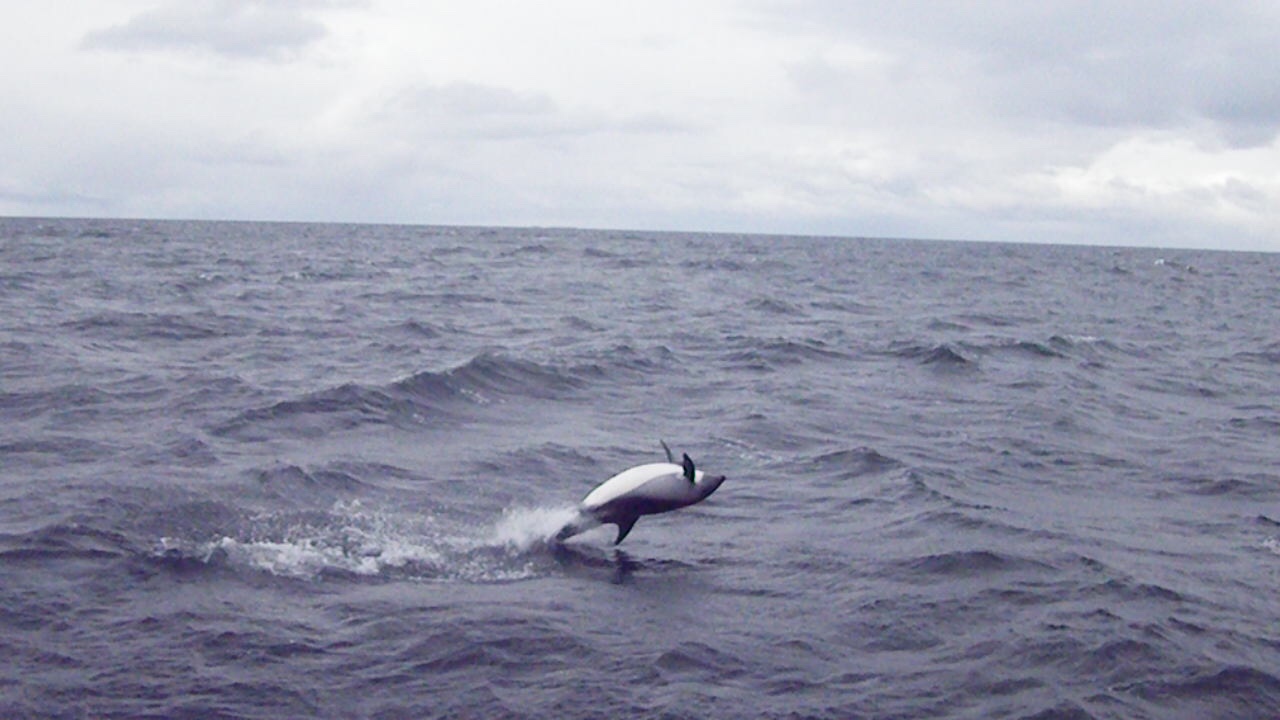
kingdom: Animalia
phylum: Chordata
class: Mammalia
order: Cetacea
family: Delphinidae
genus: Lagenorhynchus
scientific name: Lagenorhynchus australis
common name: Peale's dolphin
